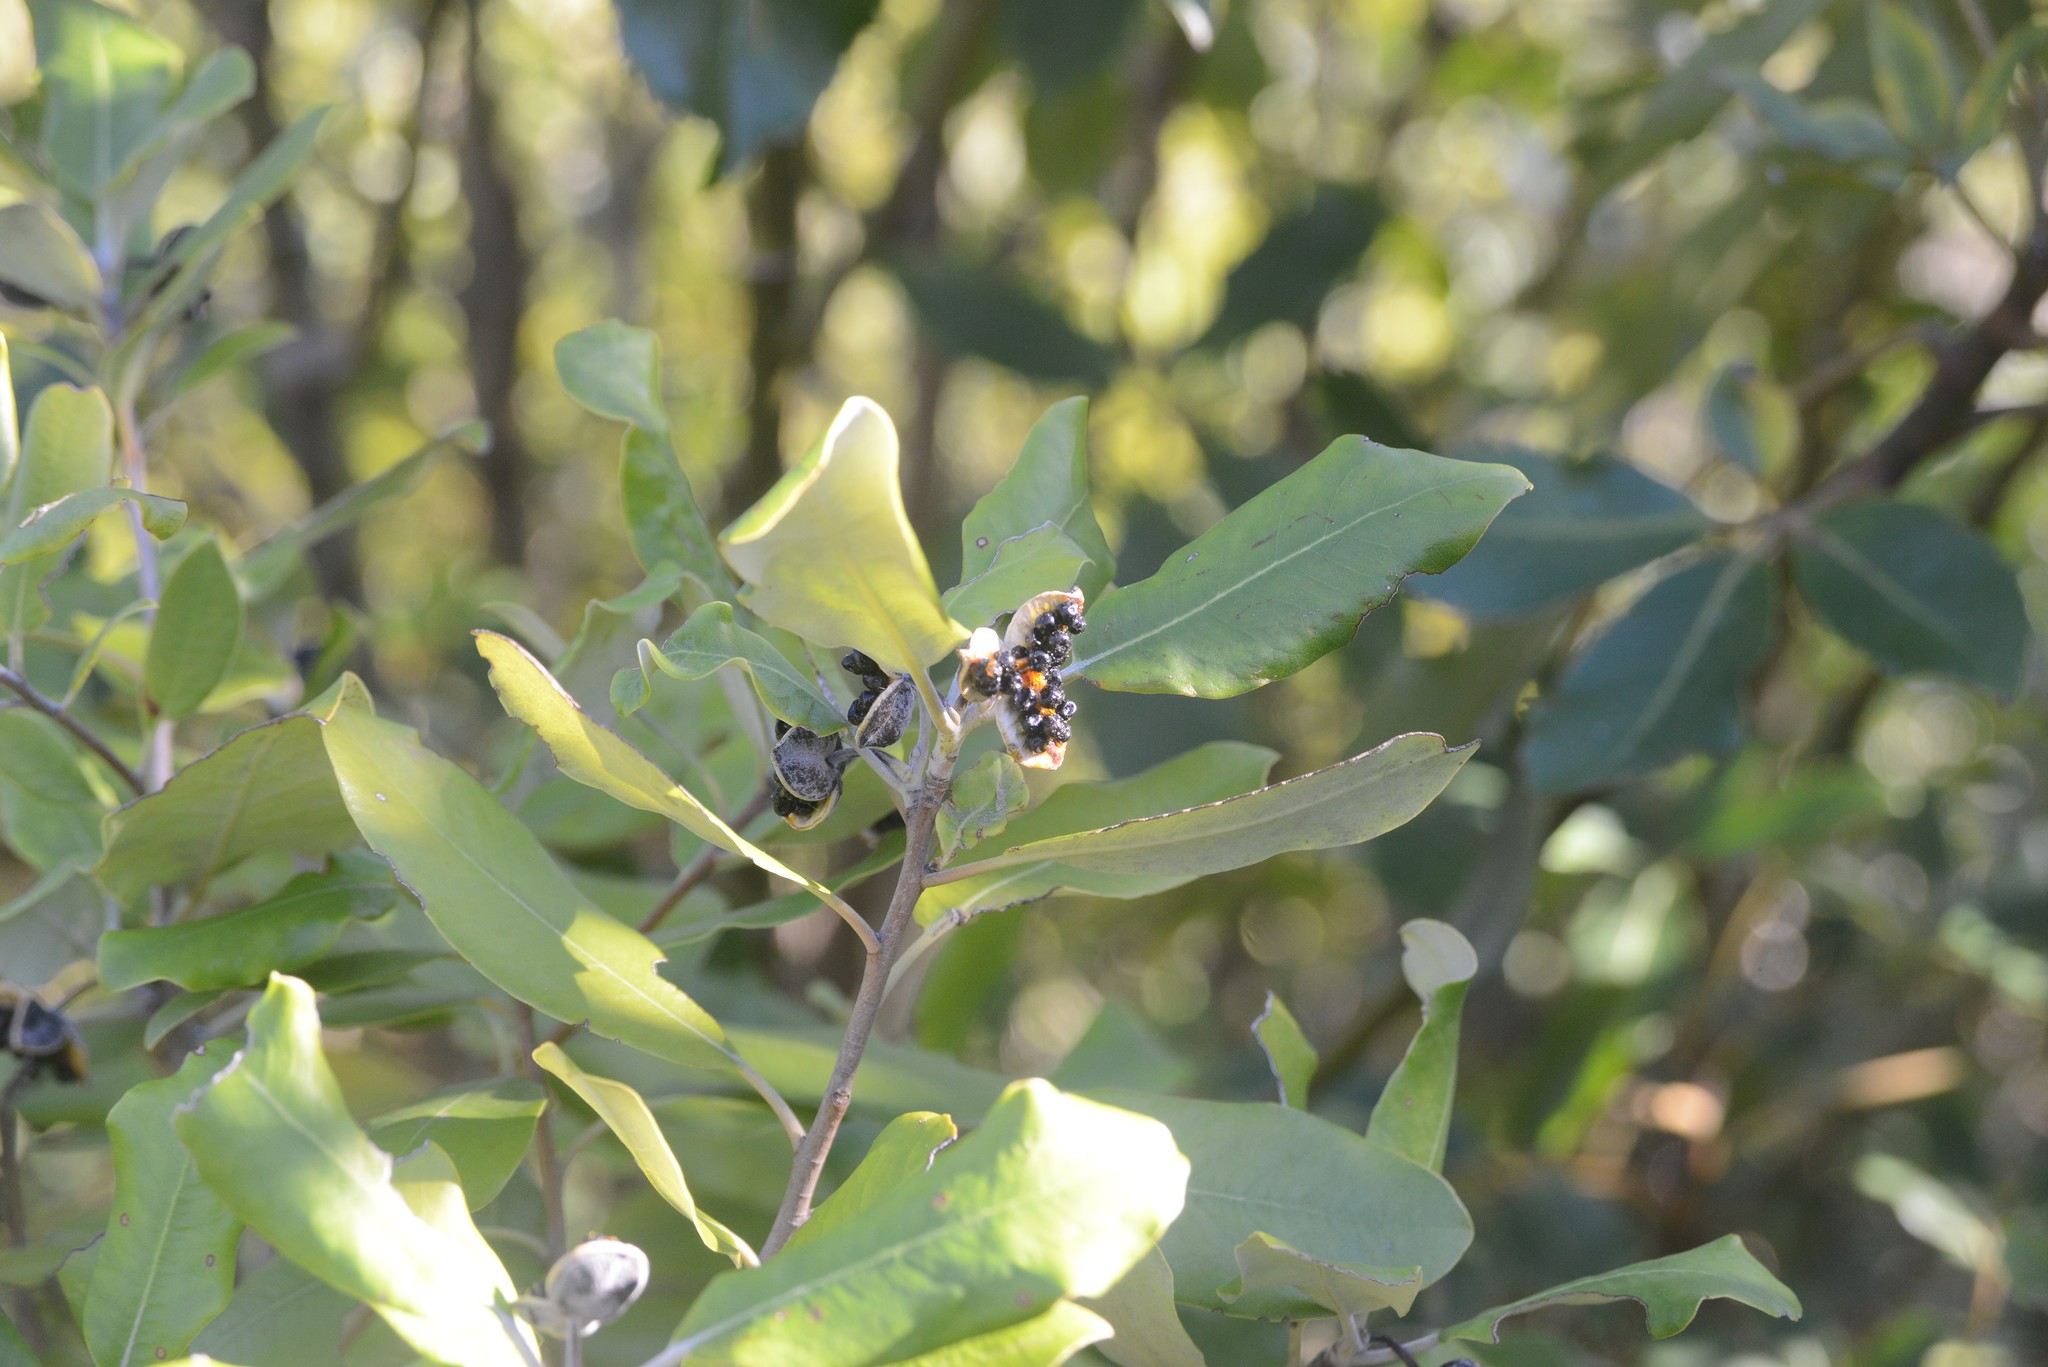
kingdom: Plantae
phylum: Tracheophyta
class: Magnoliopsida
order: Apiales
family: Pittosporaceae
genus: Pittosporum
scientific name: Pittosporum ralphii
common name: Ralph's desertwillow
